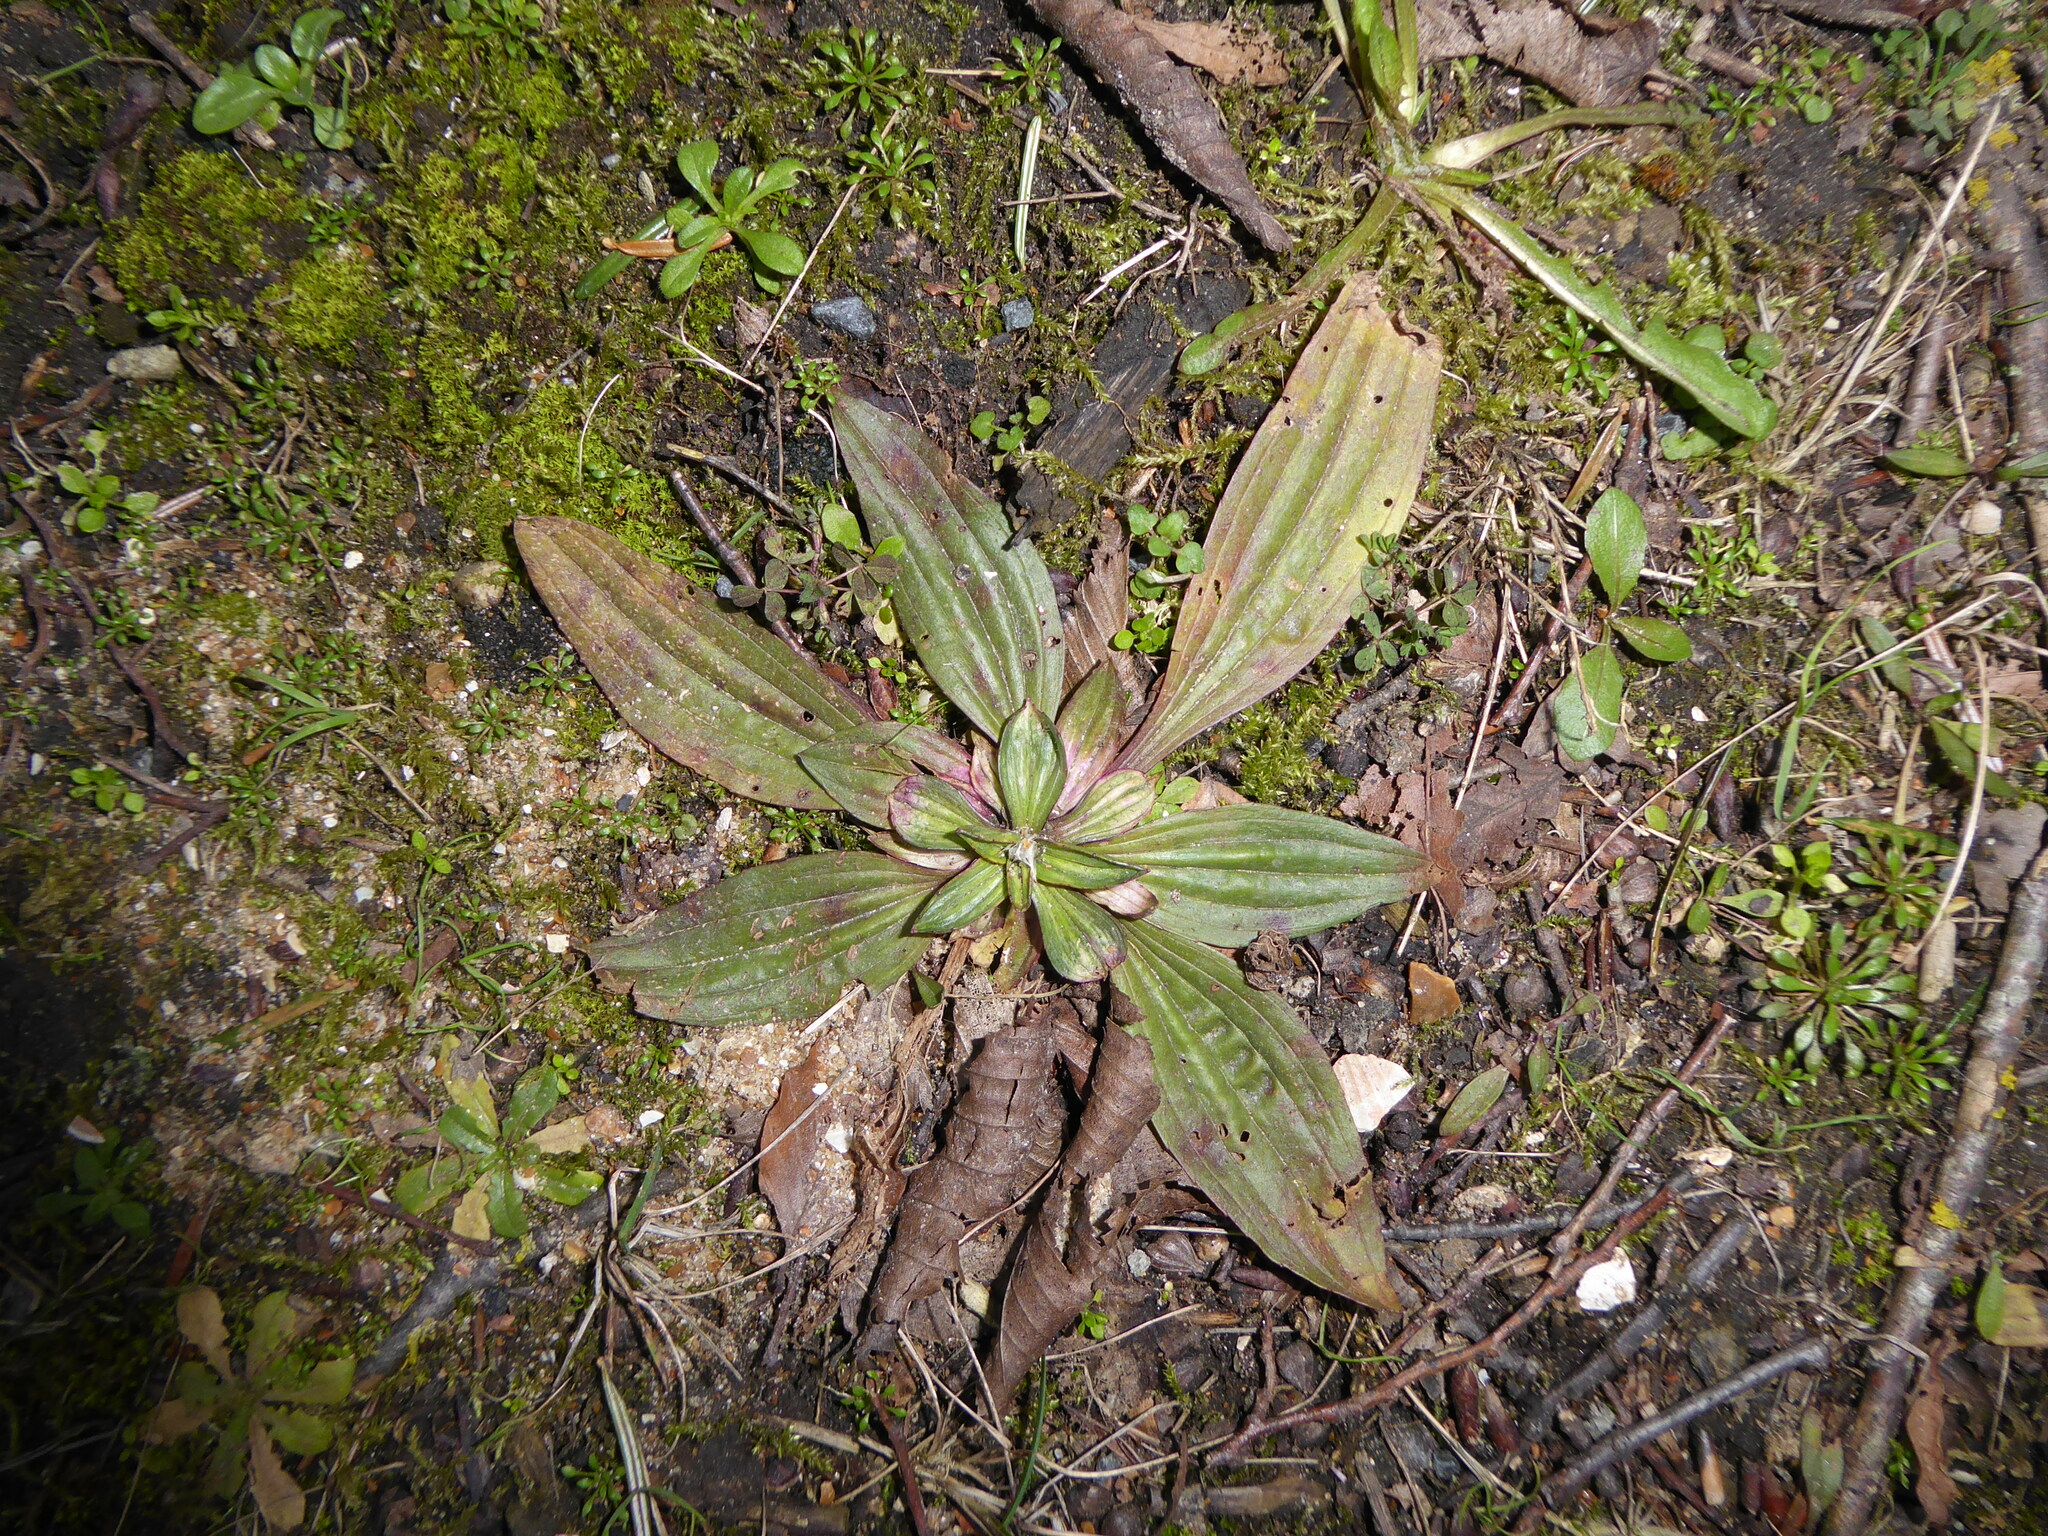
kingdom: Plantae
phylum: Tracheophyta
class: Magnoliopsida
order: Lamiales
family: Plantaginaceae
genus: Plantago
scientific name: Plantago lanceolata
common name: Ribwort plantain
